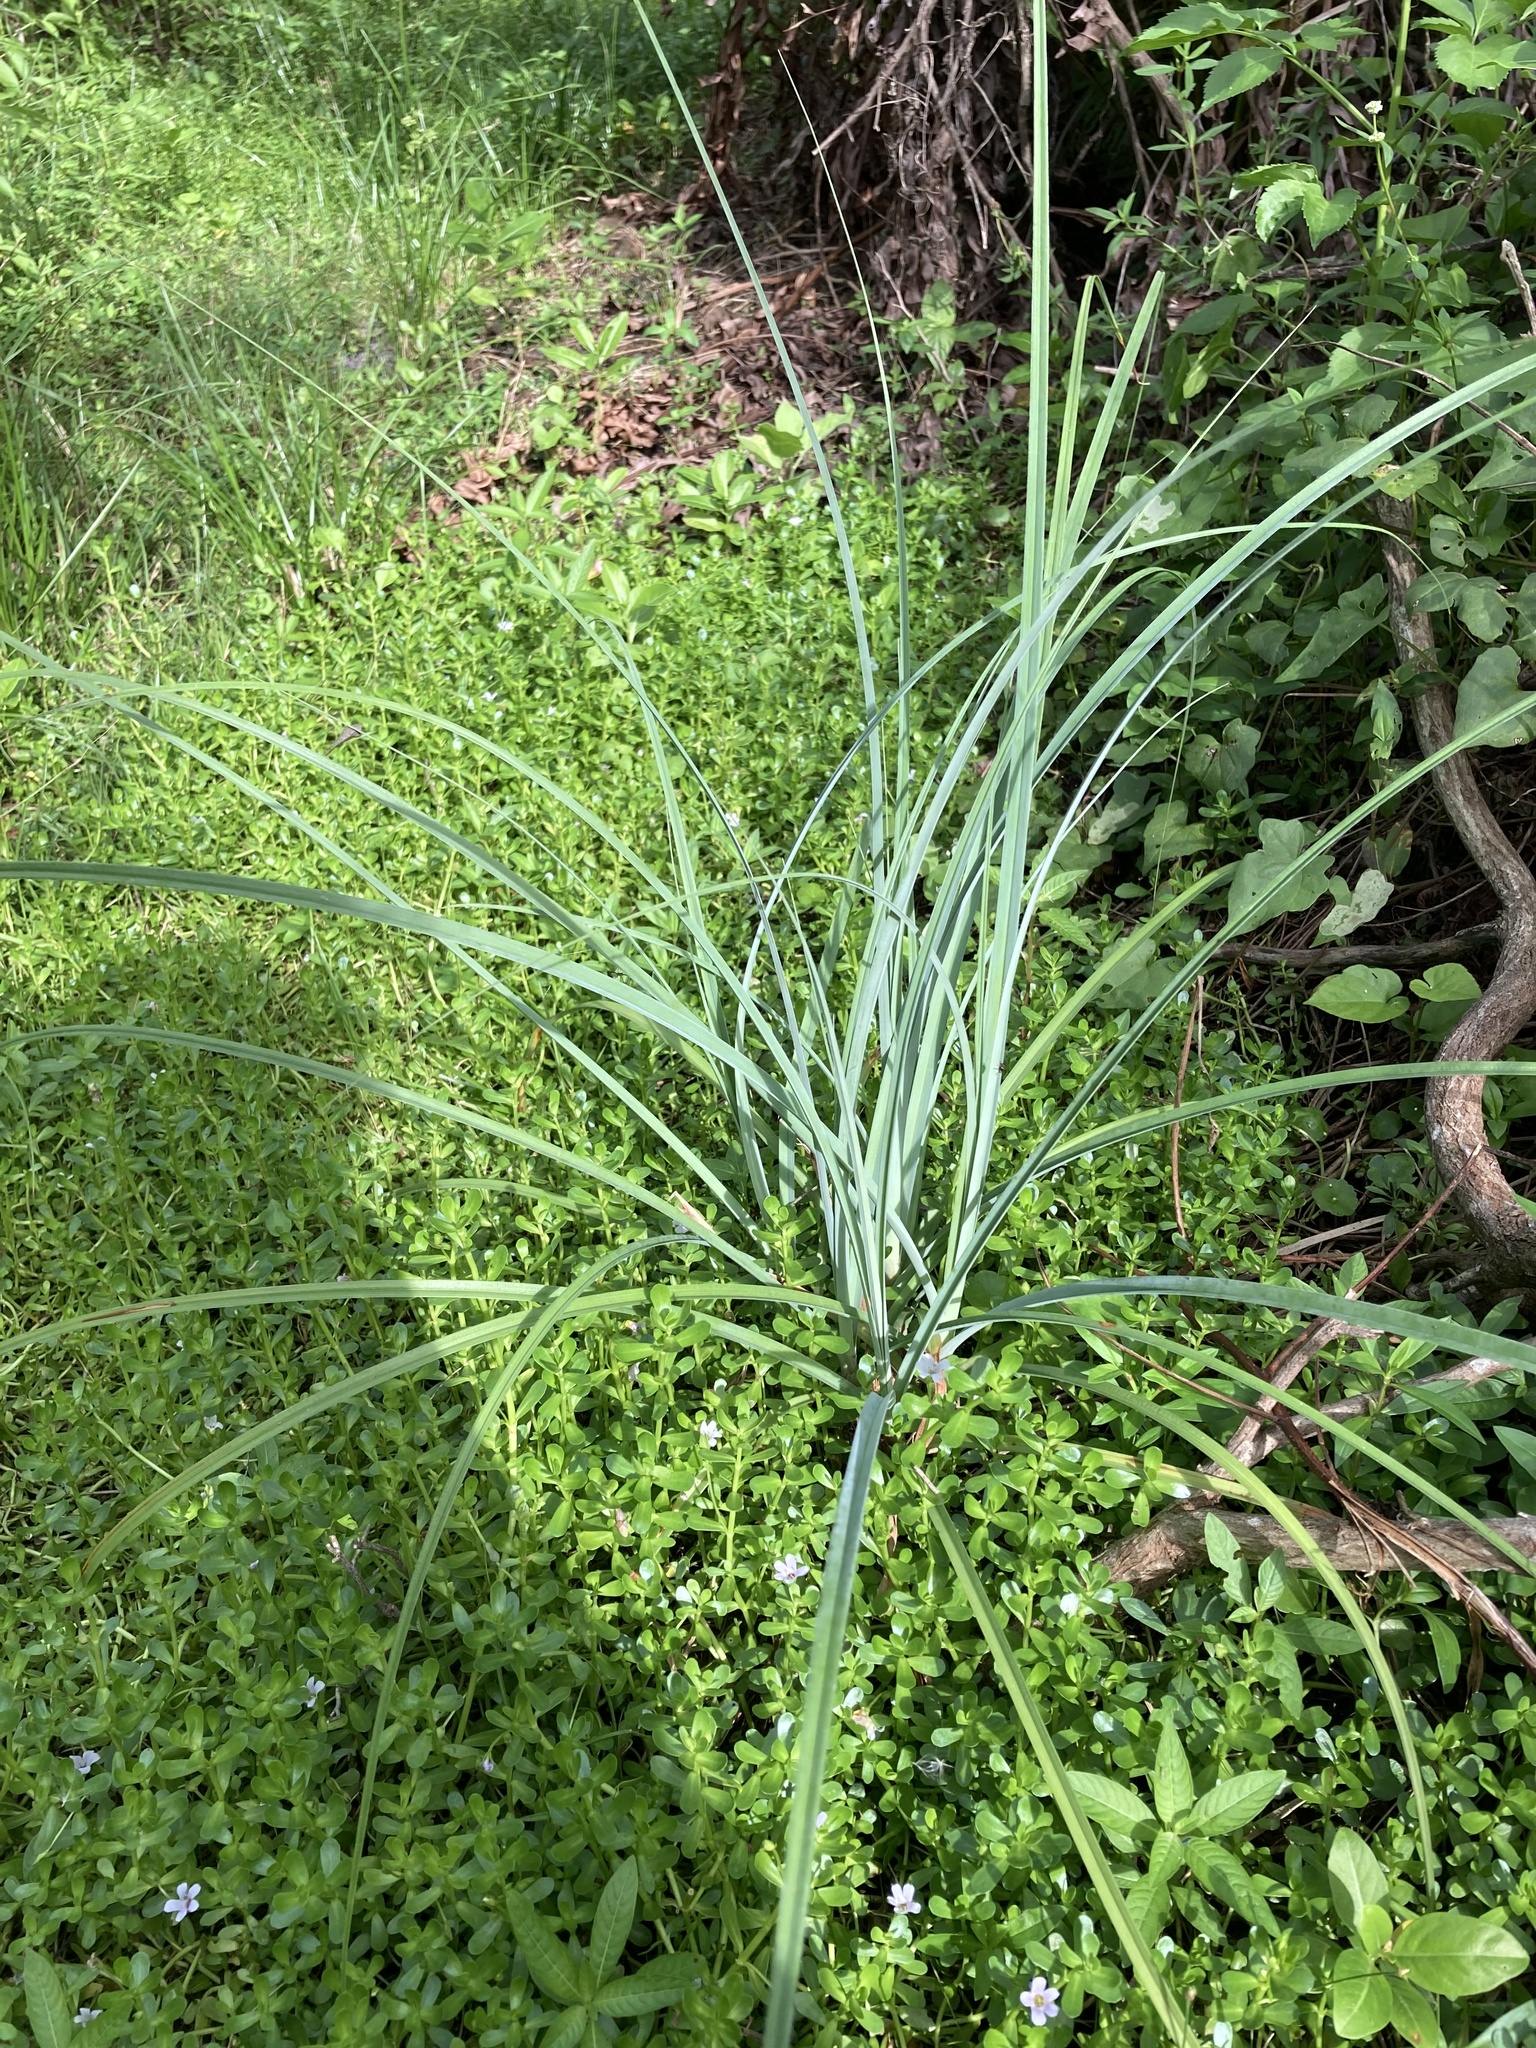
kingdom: Plantae
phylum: Tracheophyta
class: Liliopsida
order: Poales
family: Cyperaceae
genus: Cyperus
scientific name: Cyperus ligularis
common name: Swamp flat sedge
